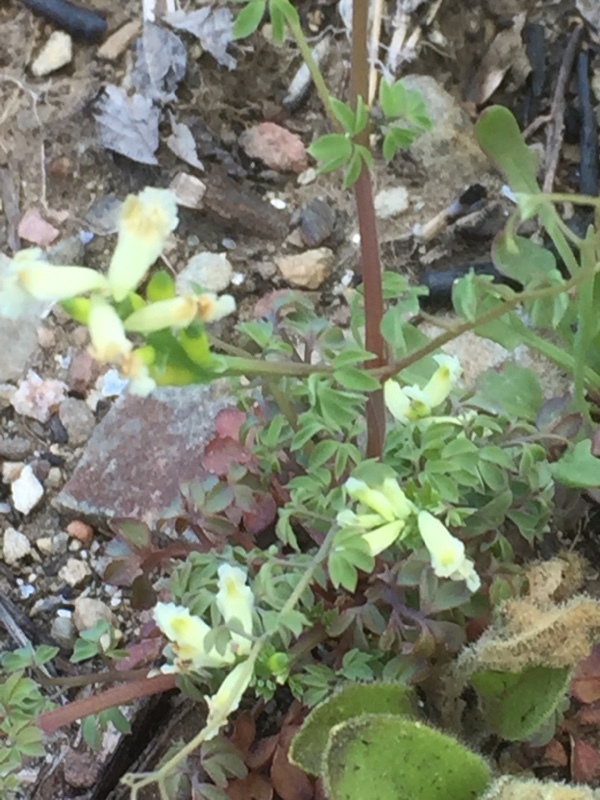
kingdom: Plantae
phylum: Tracheophyta
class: Magnoliopsida
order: Ranunculales
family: Papaveraceae
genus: Ceratocapnos
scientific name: Ceratocapnos claviculata
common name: Climbing corydalis
